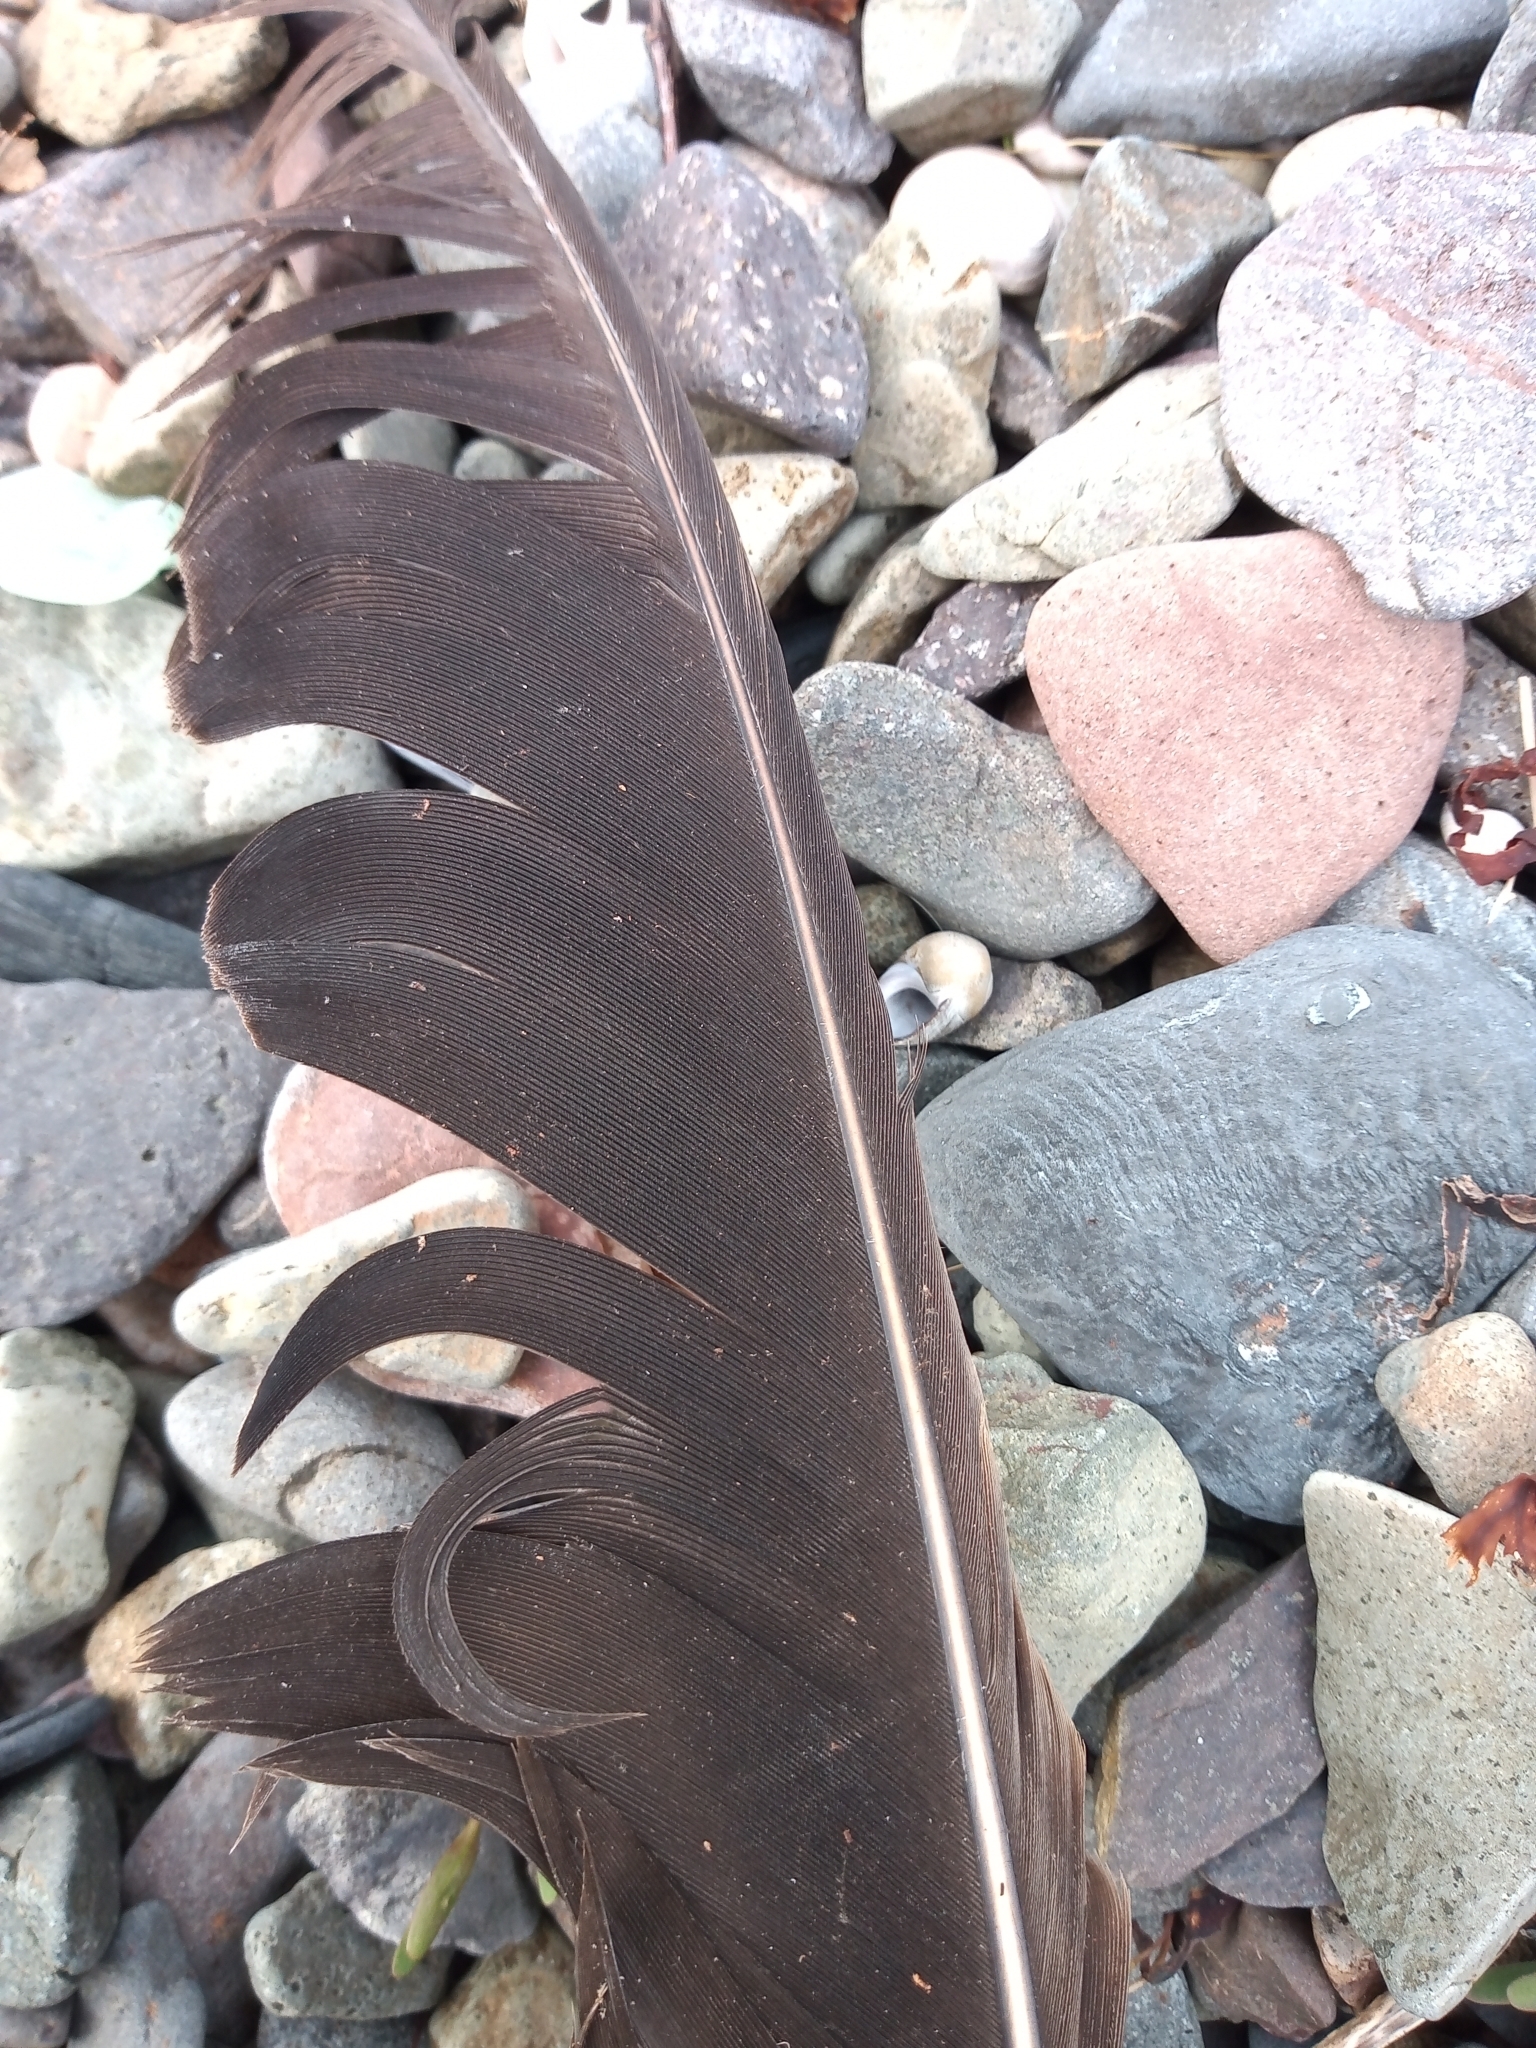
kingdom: Animalia
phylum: Chordata
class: Aves
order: Accipitriformes
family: Accipitridae
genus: Haliaeetus
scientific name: Haliaeetus albicilla
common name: White-tailed eagle
